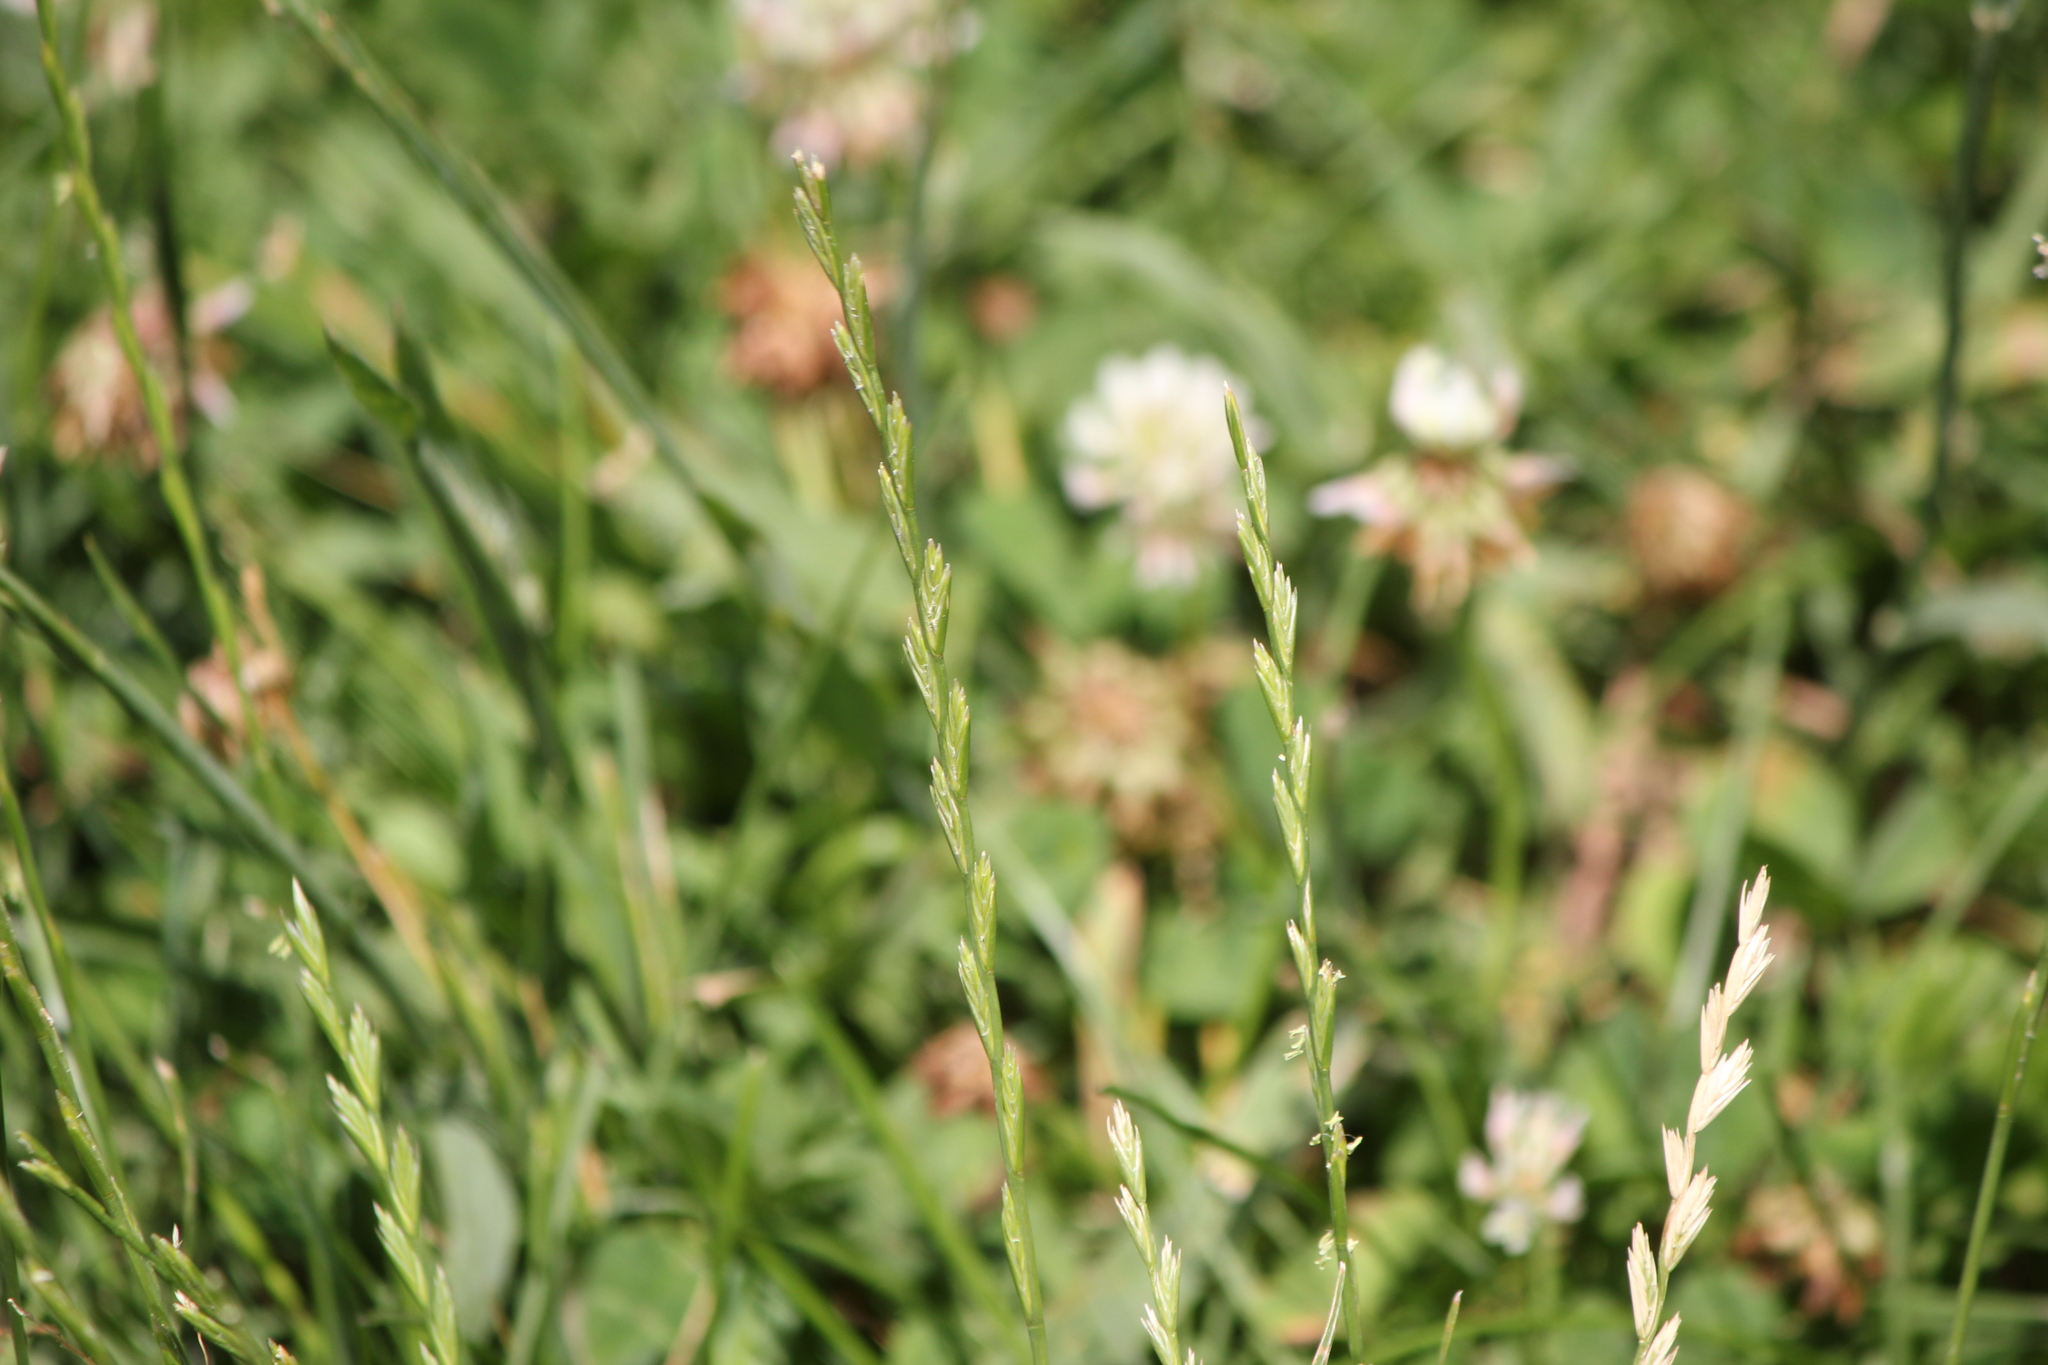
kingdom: Plantae
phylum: Tracheophyta
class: Liliopsida
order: Poales
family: Poaceae
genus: Lolium
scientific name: Lolium perenne
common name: Perennial ryegrass
